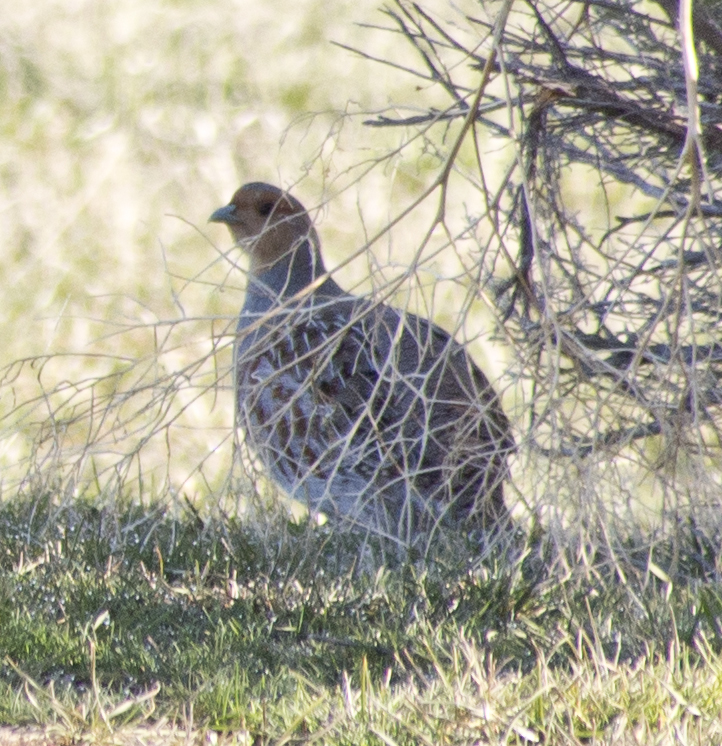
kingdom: Animalia
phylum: Chordata
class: Aves
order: Galliformes
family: Phasianidae
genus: Perdix
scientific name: Perdix perdix
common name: Grey partridge
